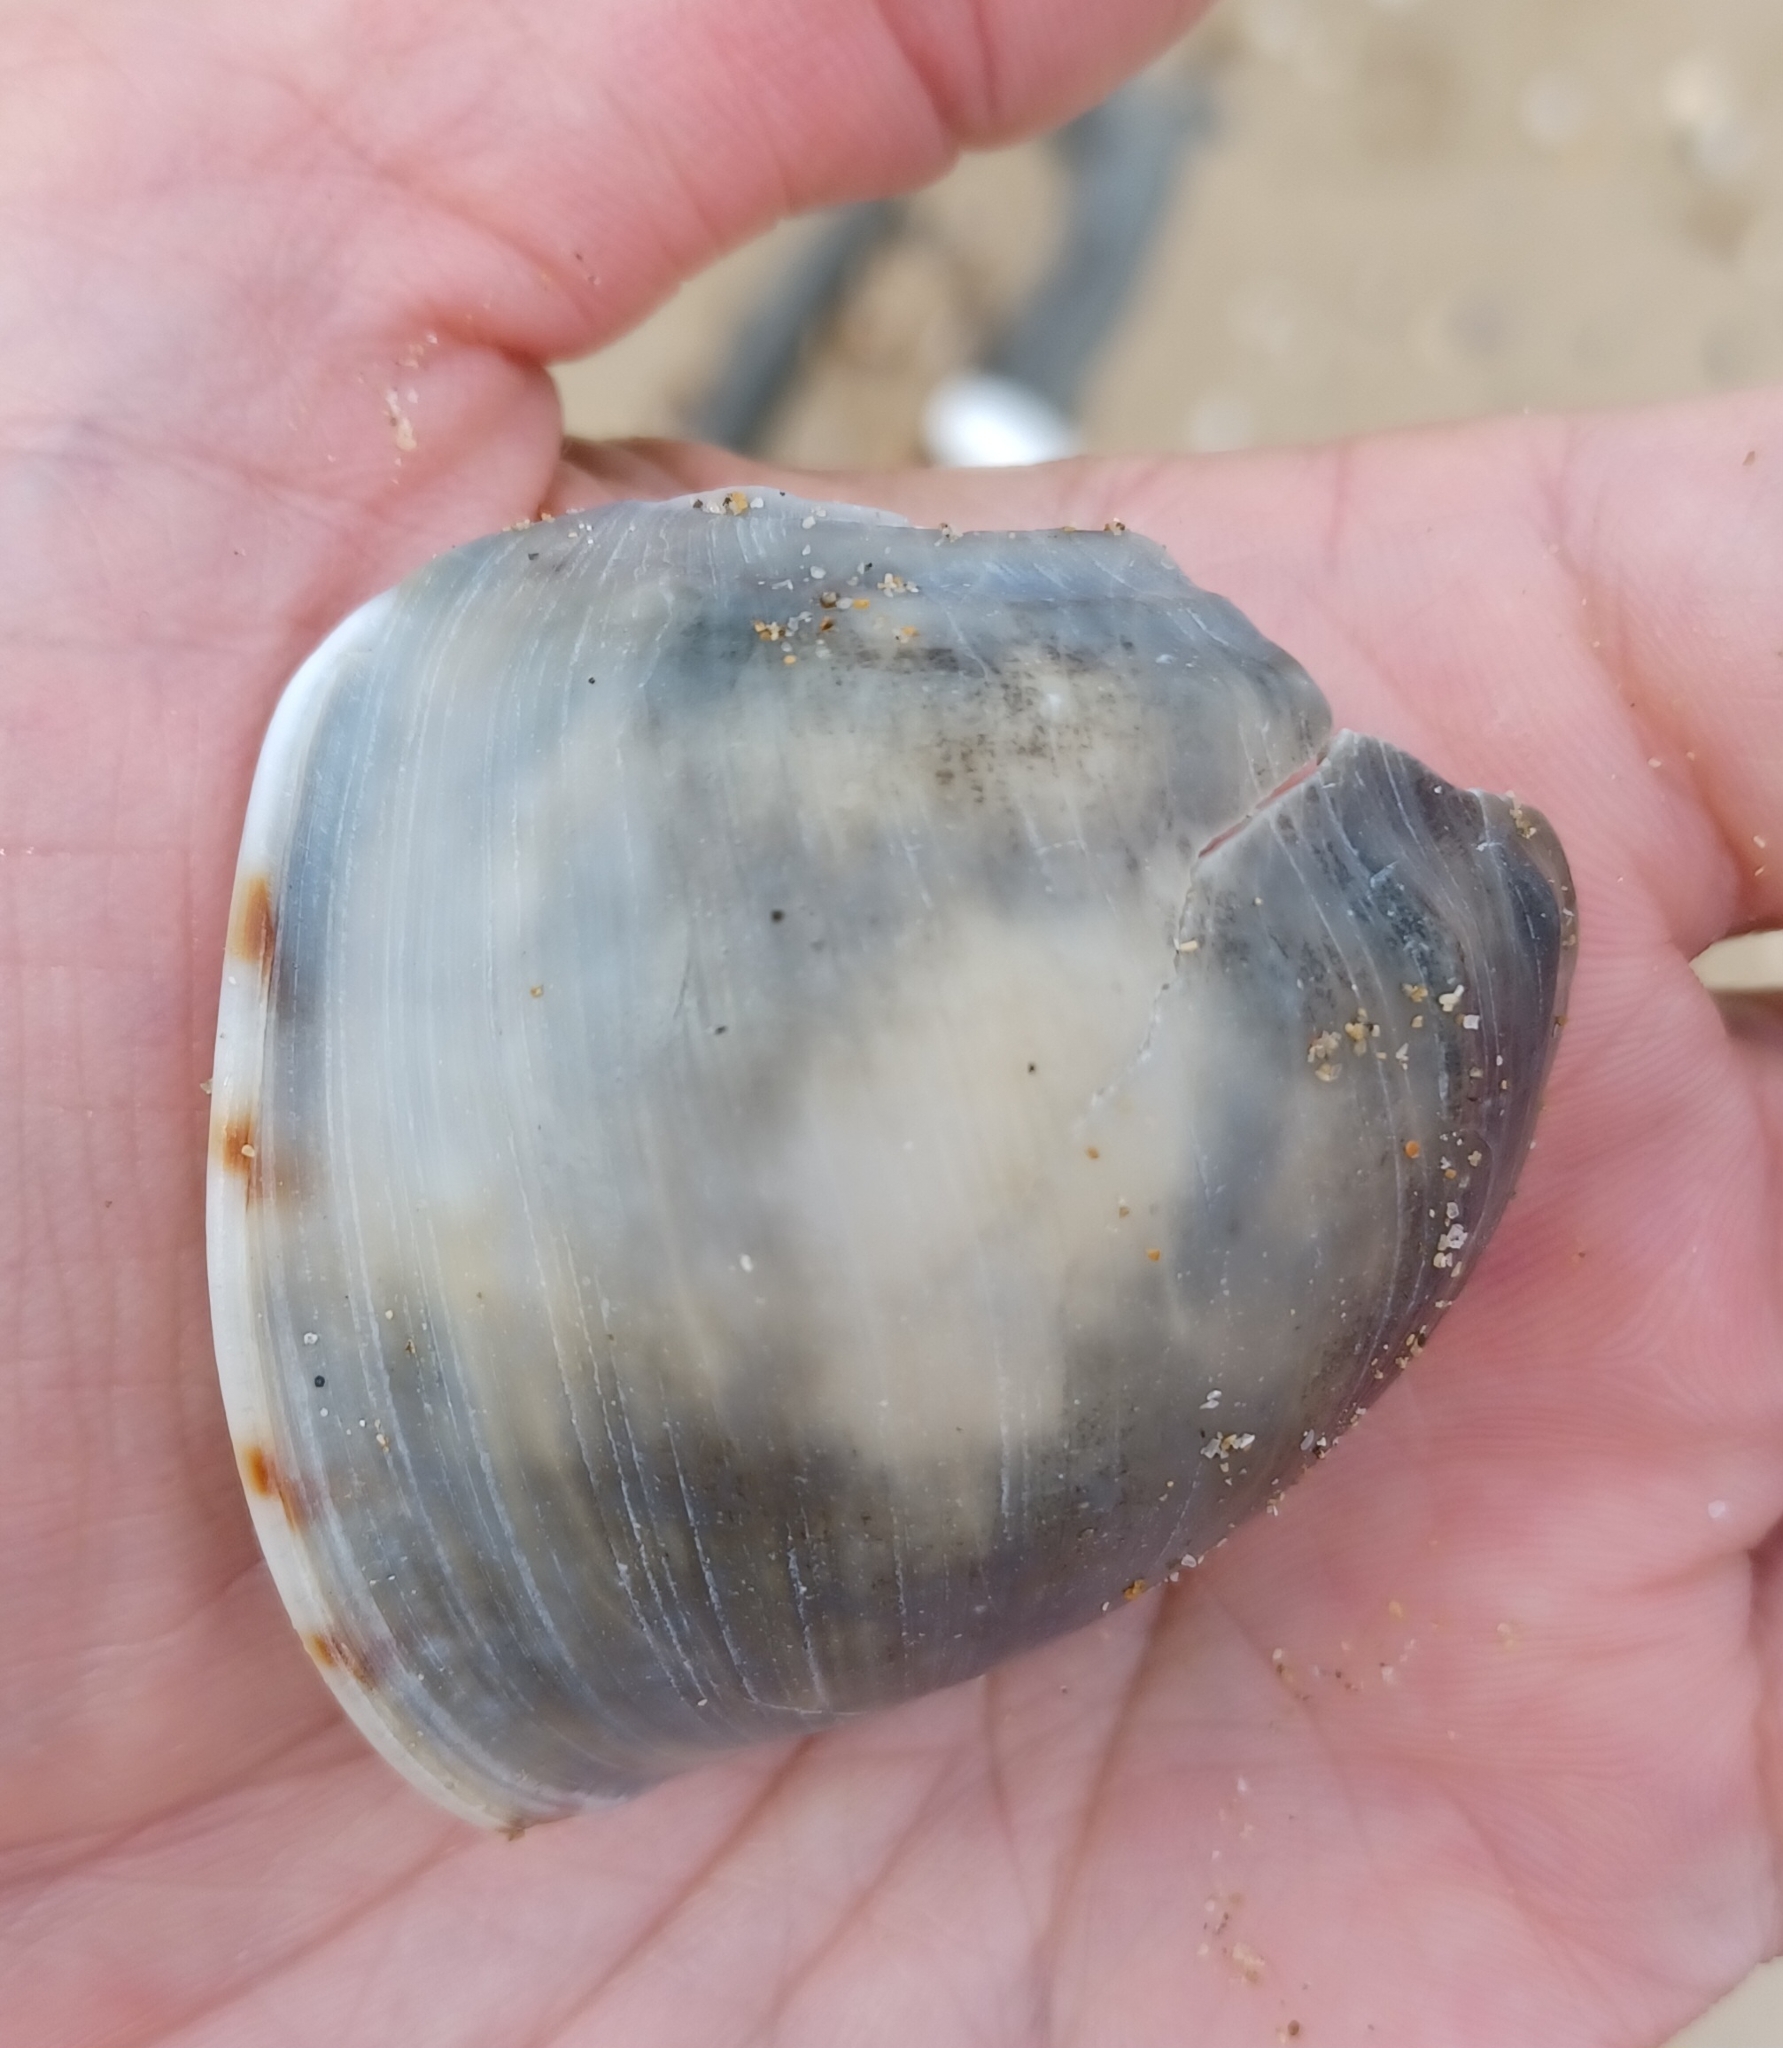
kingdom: Animalia
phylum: Mollusca
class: Gastropoda
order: Littorinimorpha
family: Cassidae
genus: Semicassis
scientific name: Semicassis pyrum
